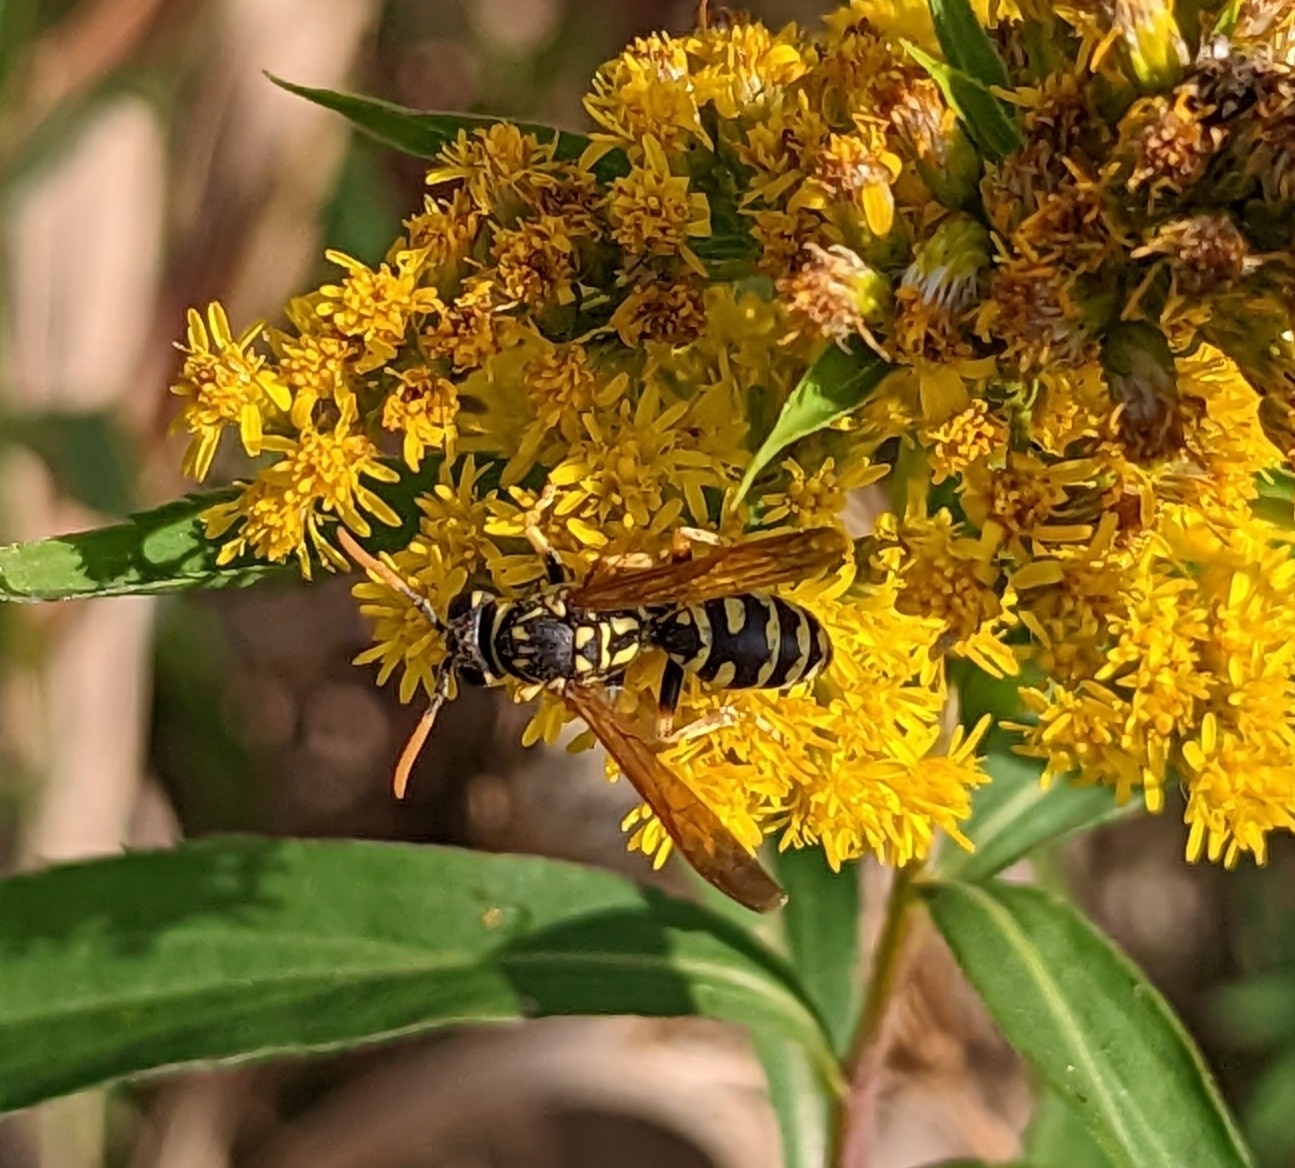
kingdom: Animalia
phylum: Arthropoda
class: Insecta
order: Hymenoptera
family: Eumenidae
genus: Polistes
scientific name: Polistes dominula
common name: Paper wasp
